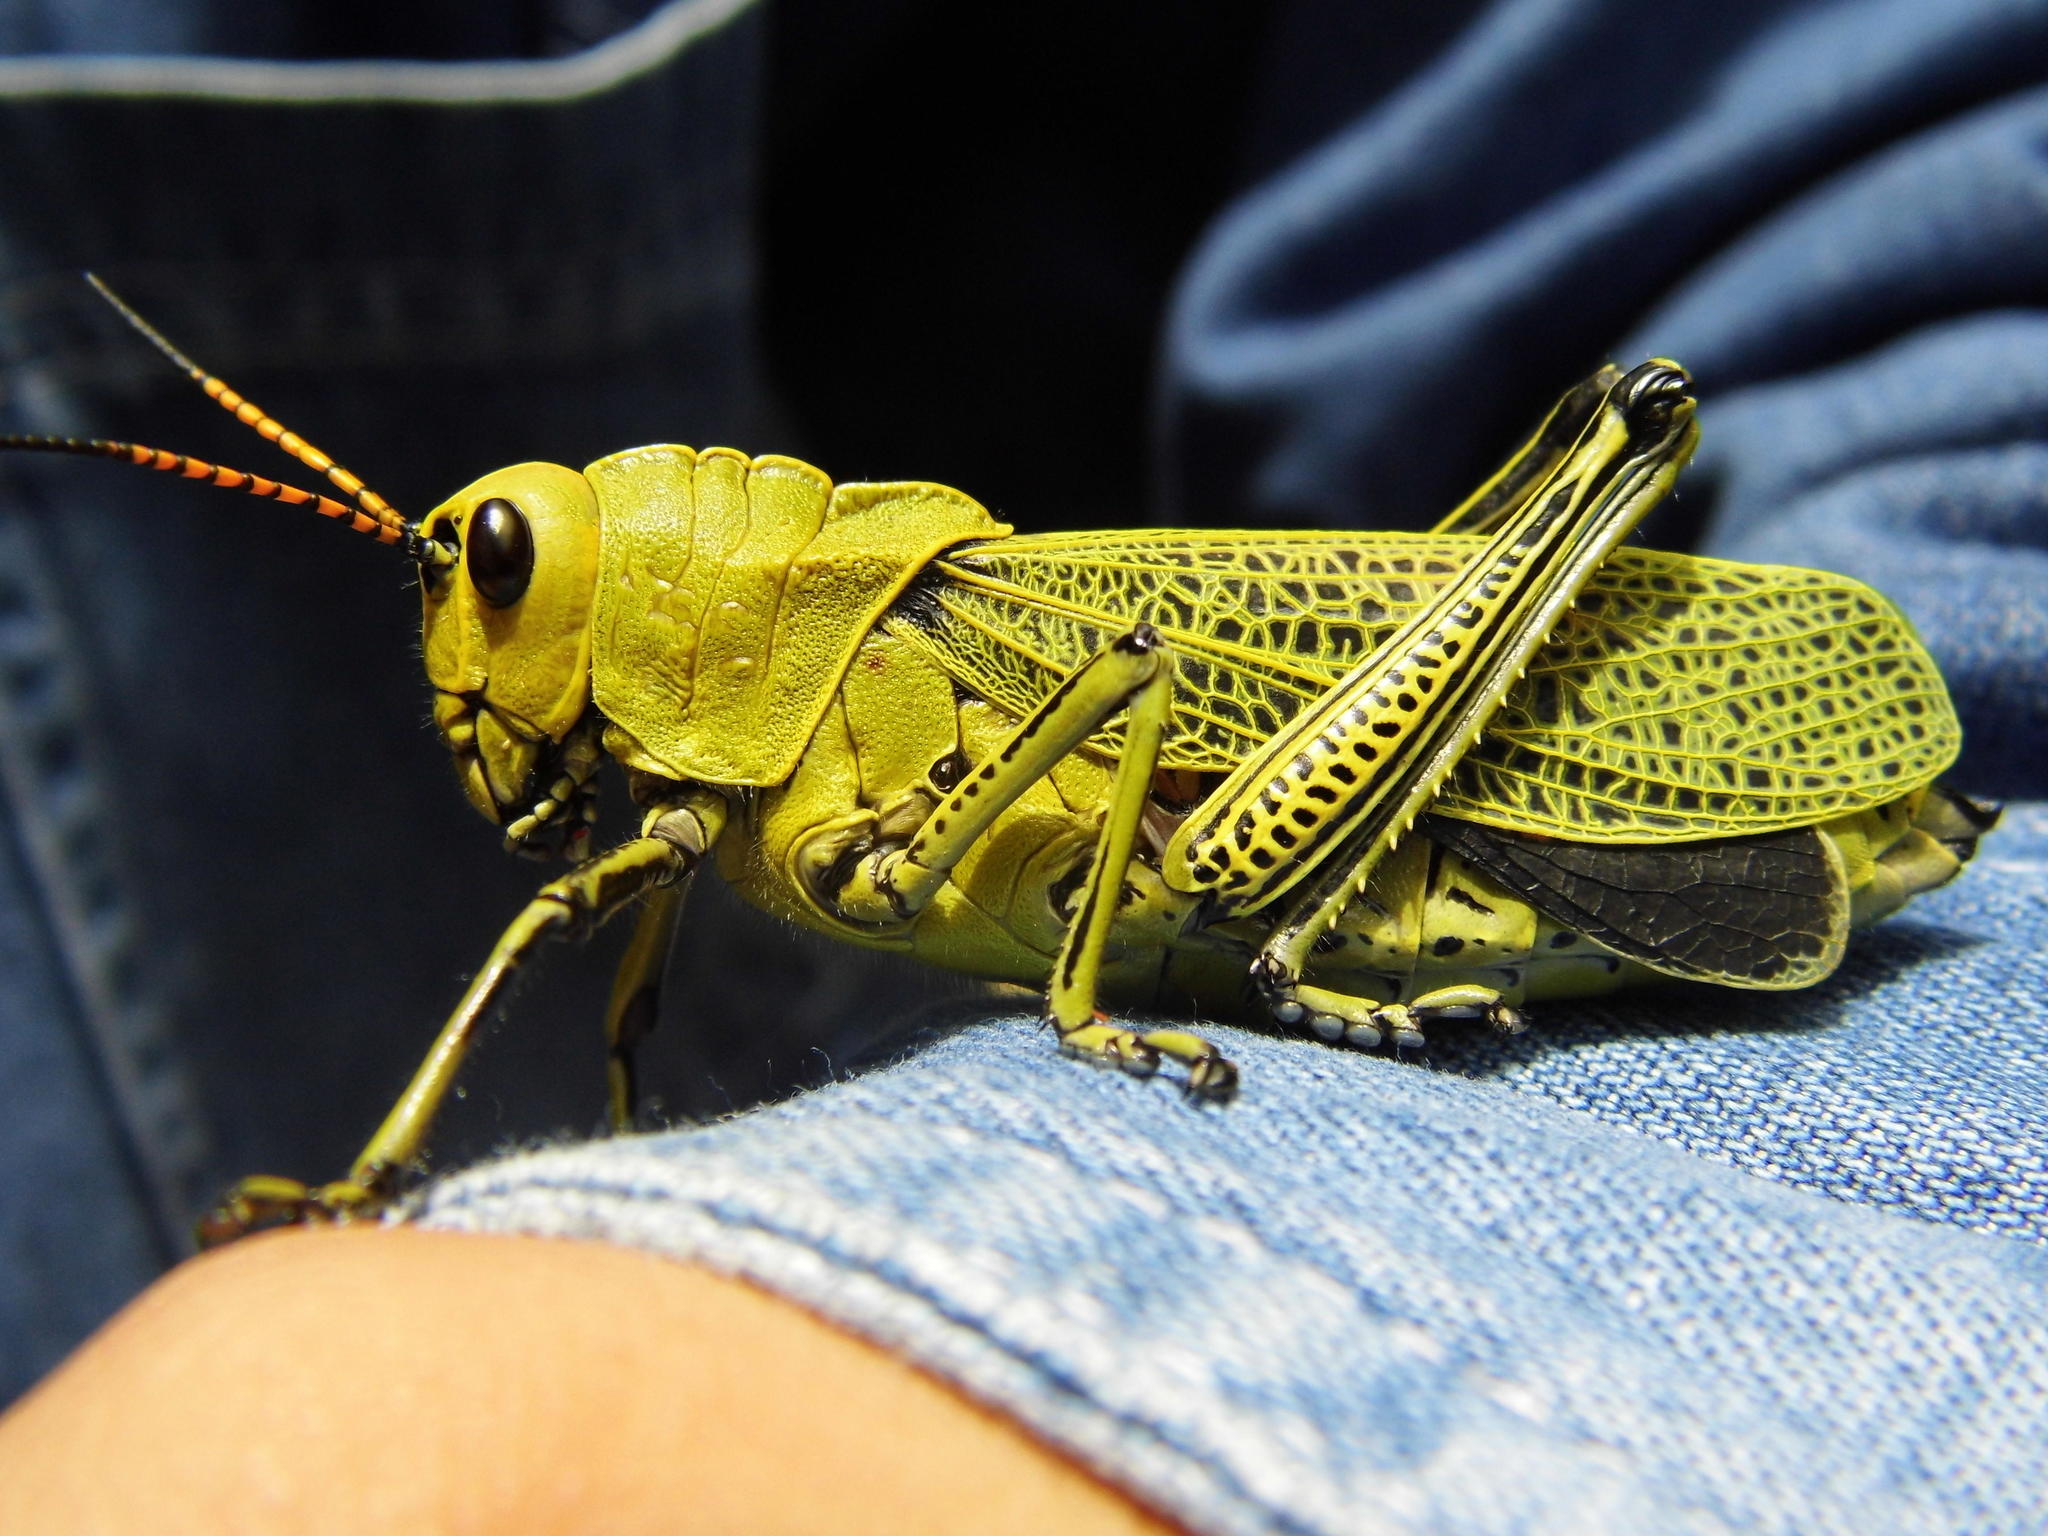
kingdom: Animalia
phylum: Arthropoda
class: Insecta
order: Orthoptera
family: Romaleidae
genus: Romalea
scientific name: Romalea
